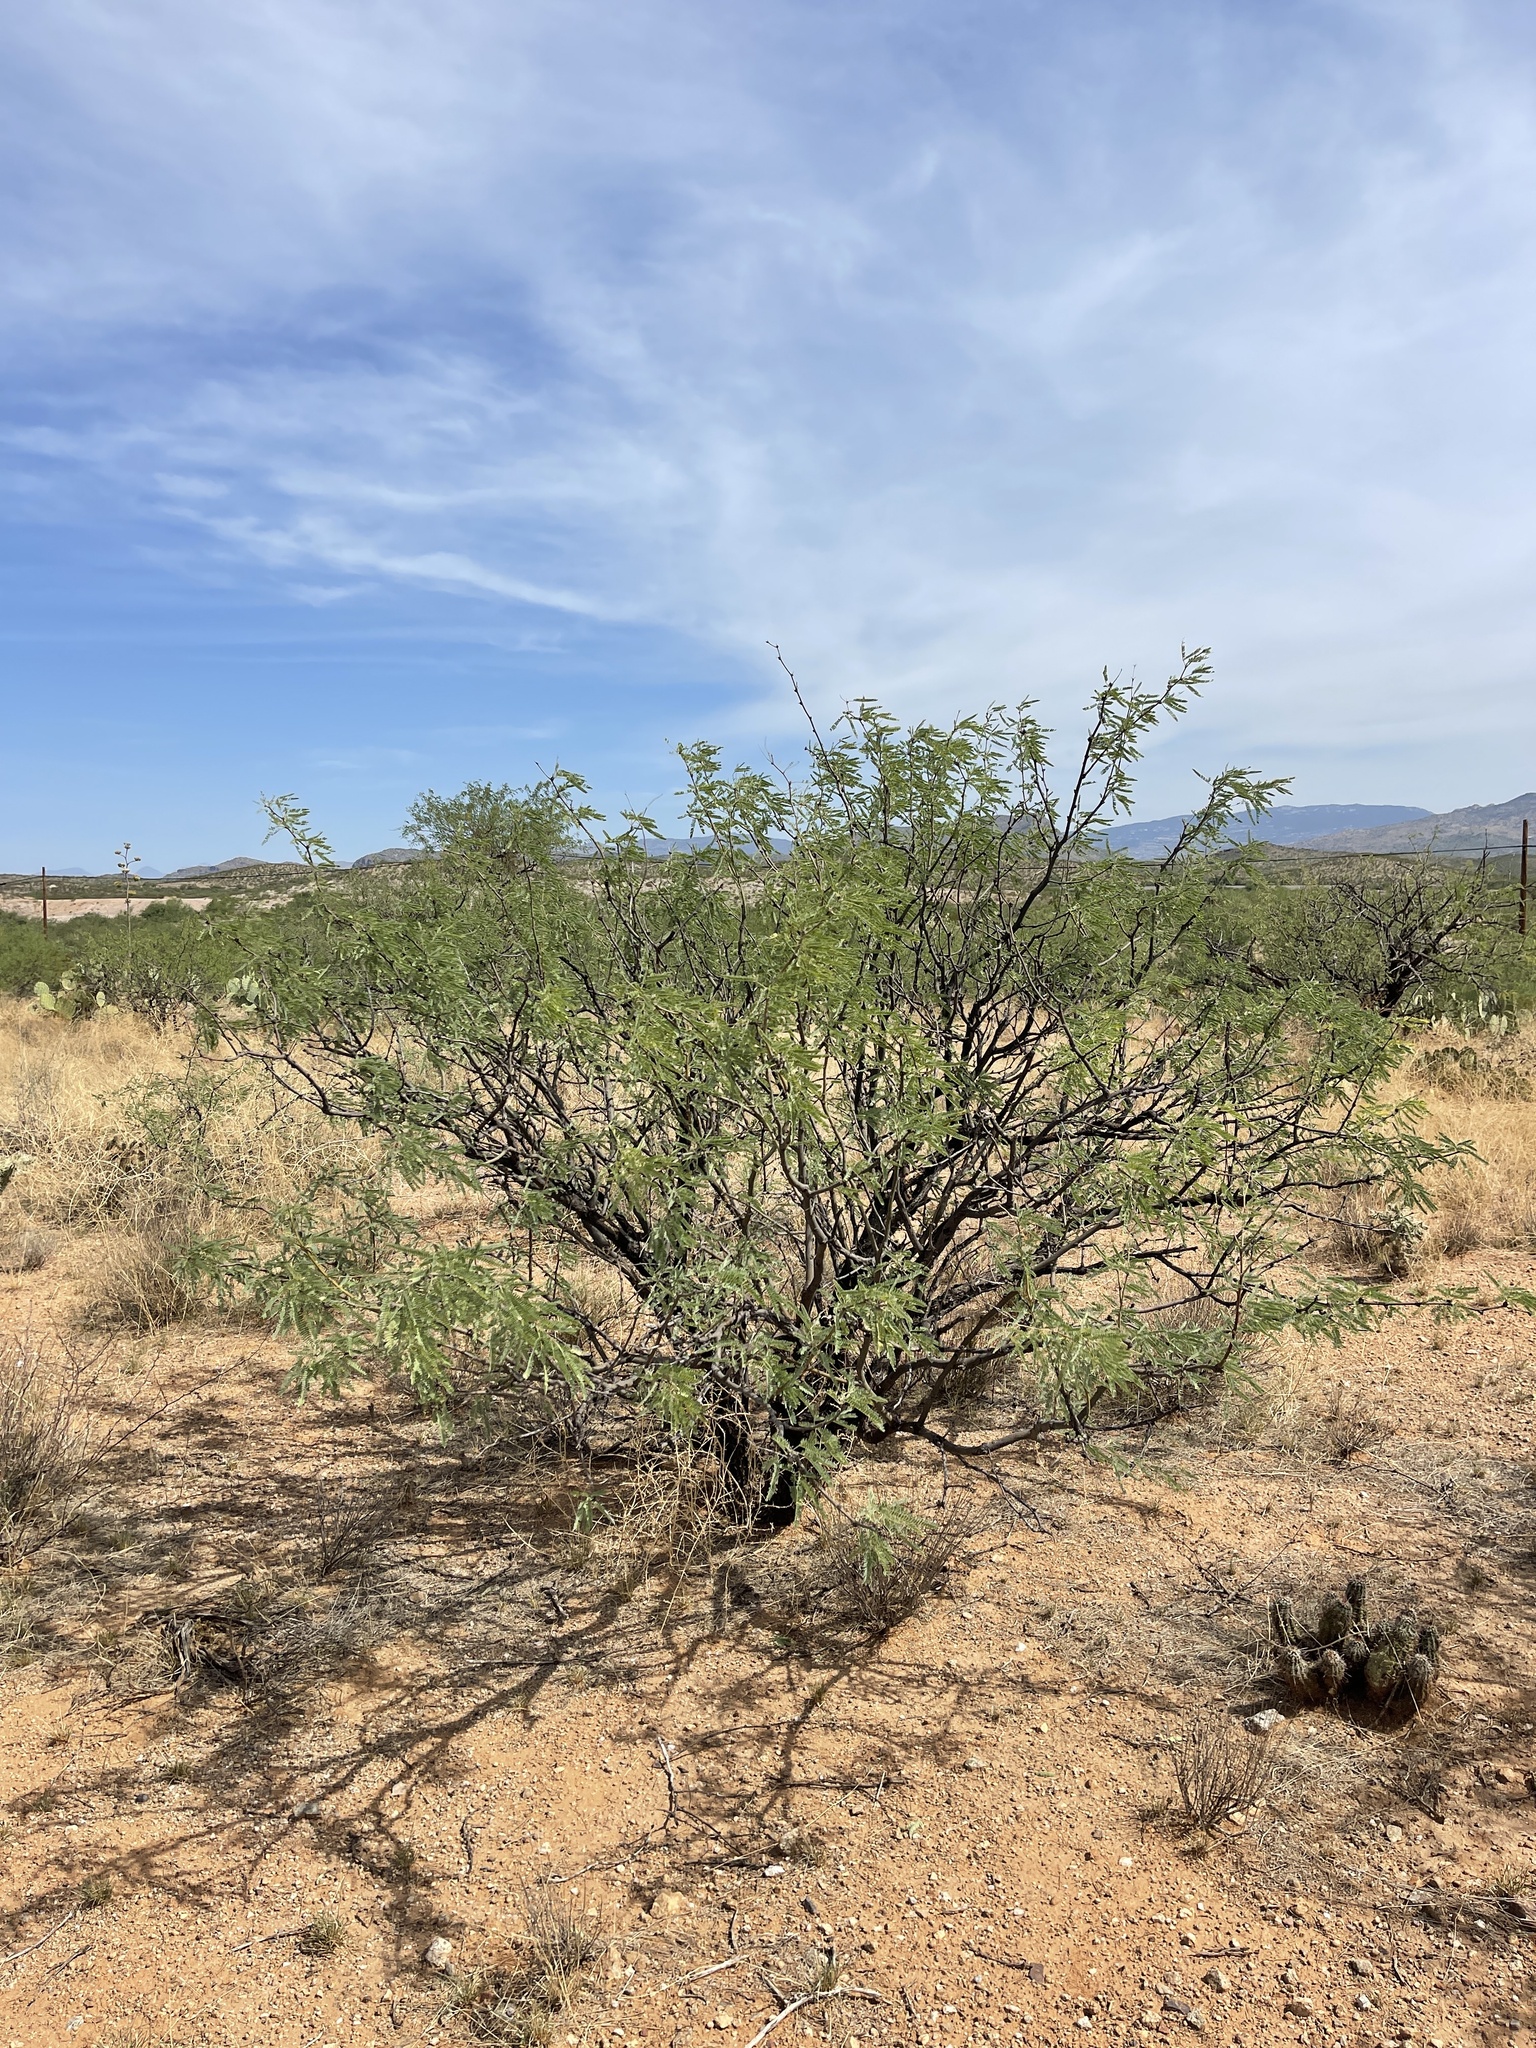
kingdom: Plantae
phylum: Tracheophyta
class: Magnoliopsida
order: Fabales
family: Fabaceae
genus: Prosopis
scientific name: Prosopis velutina
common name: Velvet mesquite
